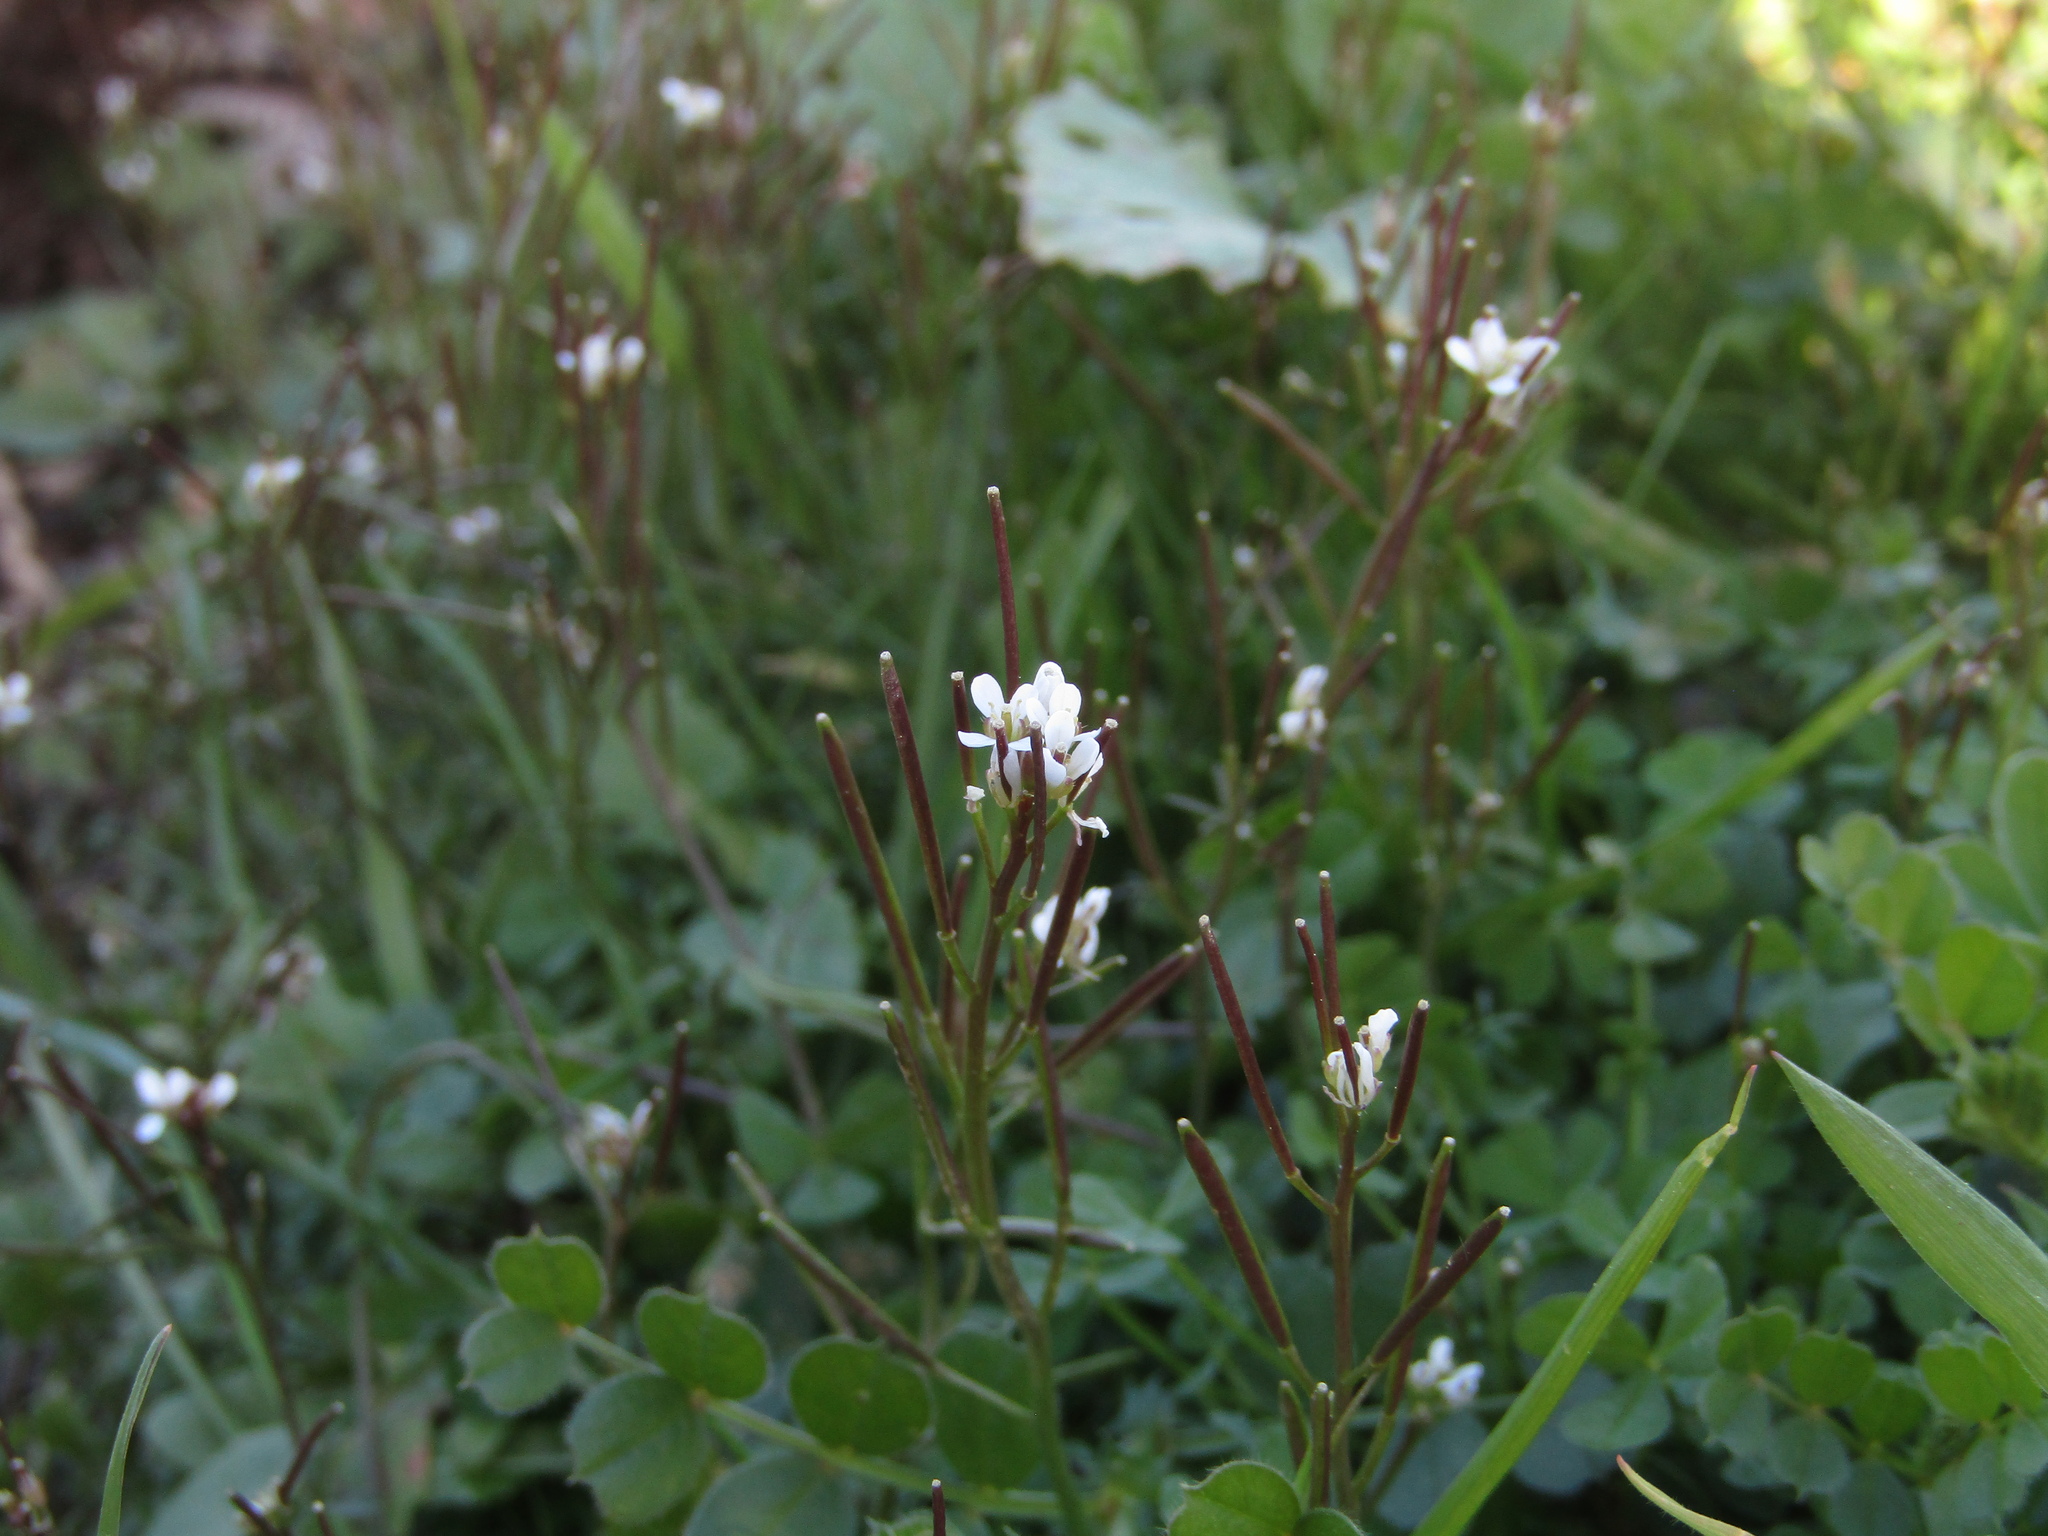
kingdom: Plantae
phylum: Tracheophyta
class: Magnoliopsida
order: Brassicales
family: Brassicaceae
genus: Cardamine
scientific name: Cardamine hirsuta
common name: Hairy bittercress
